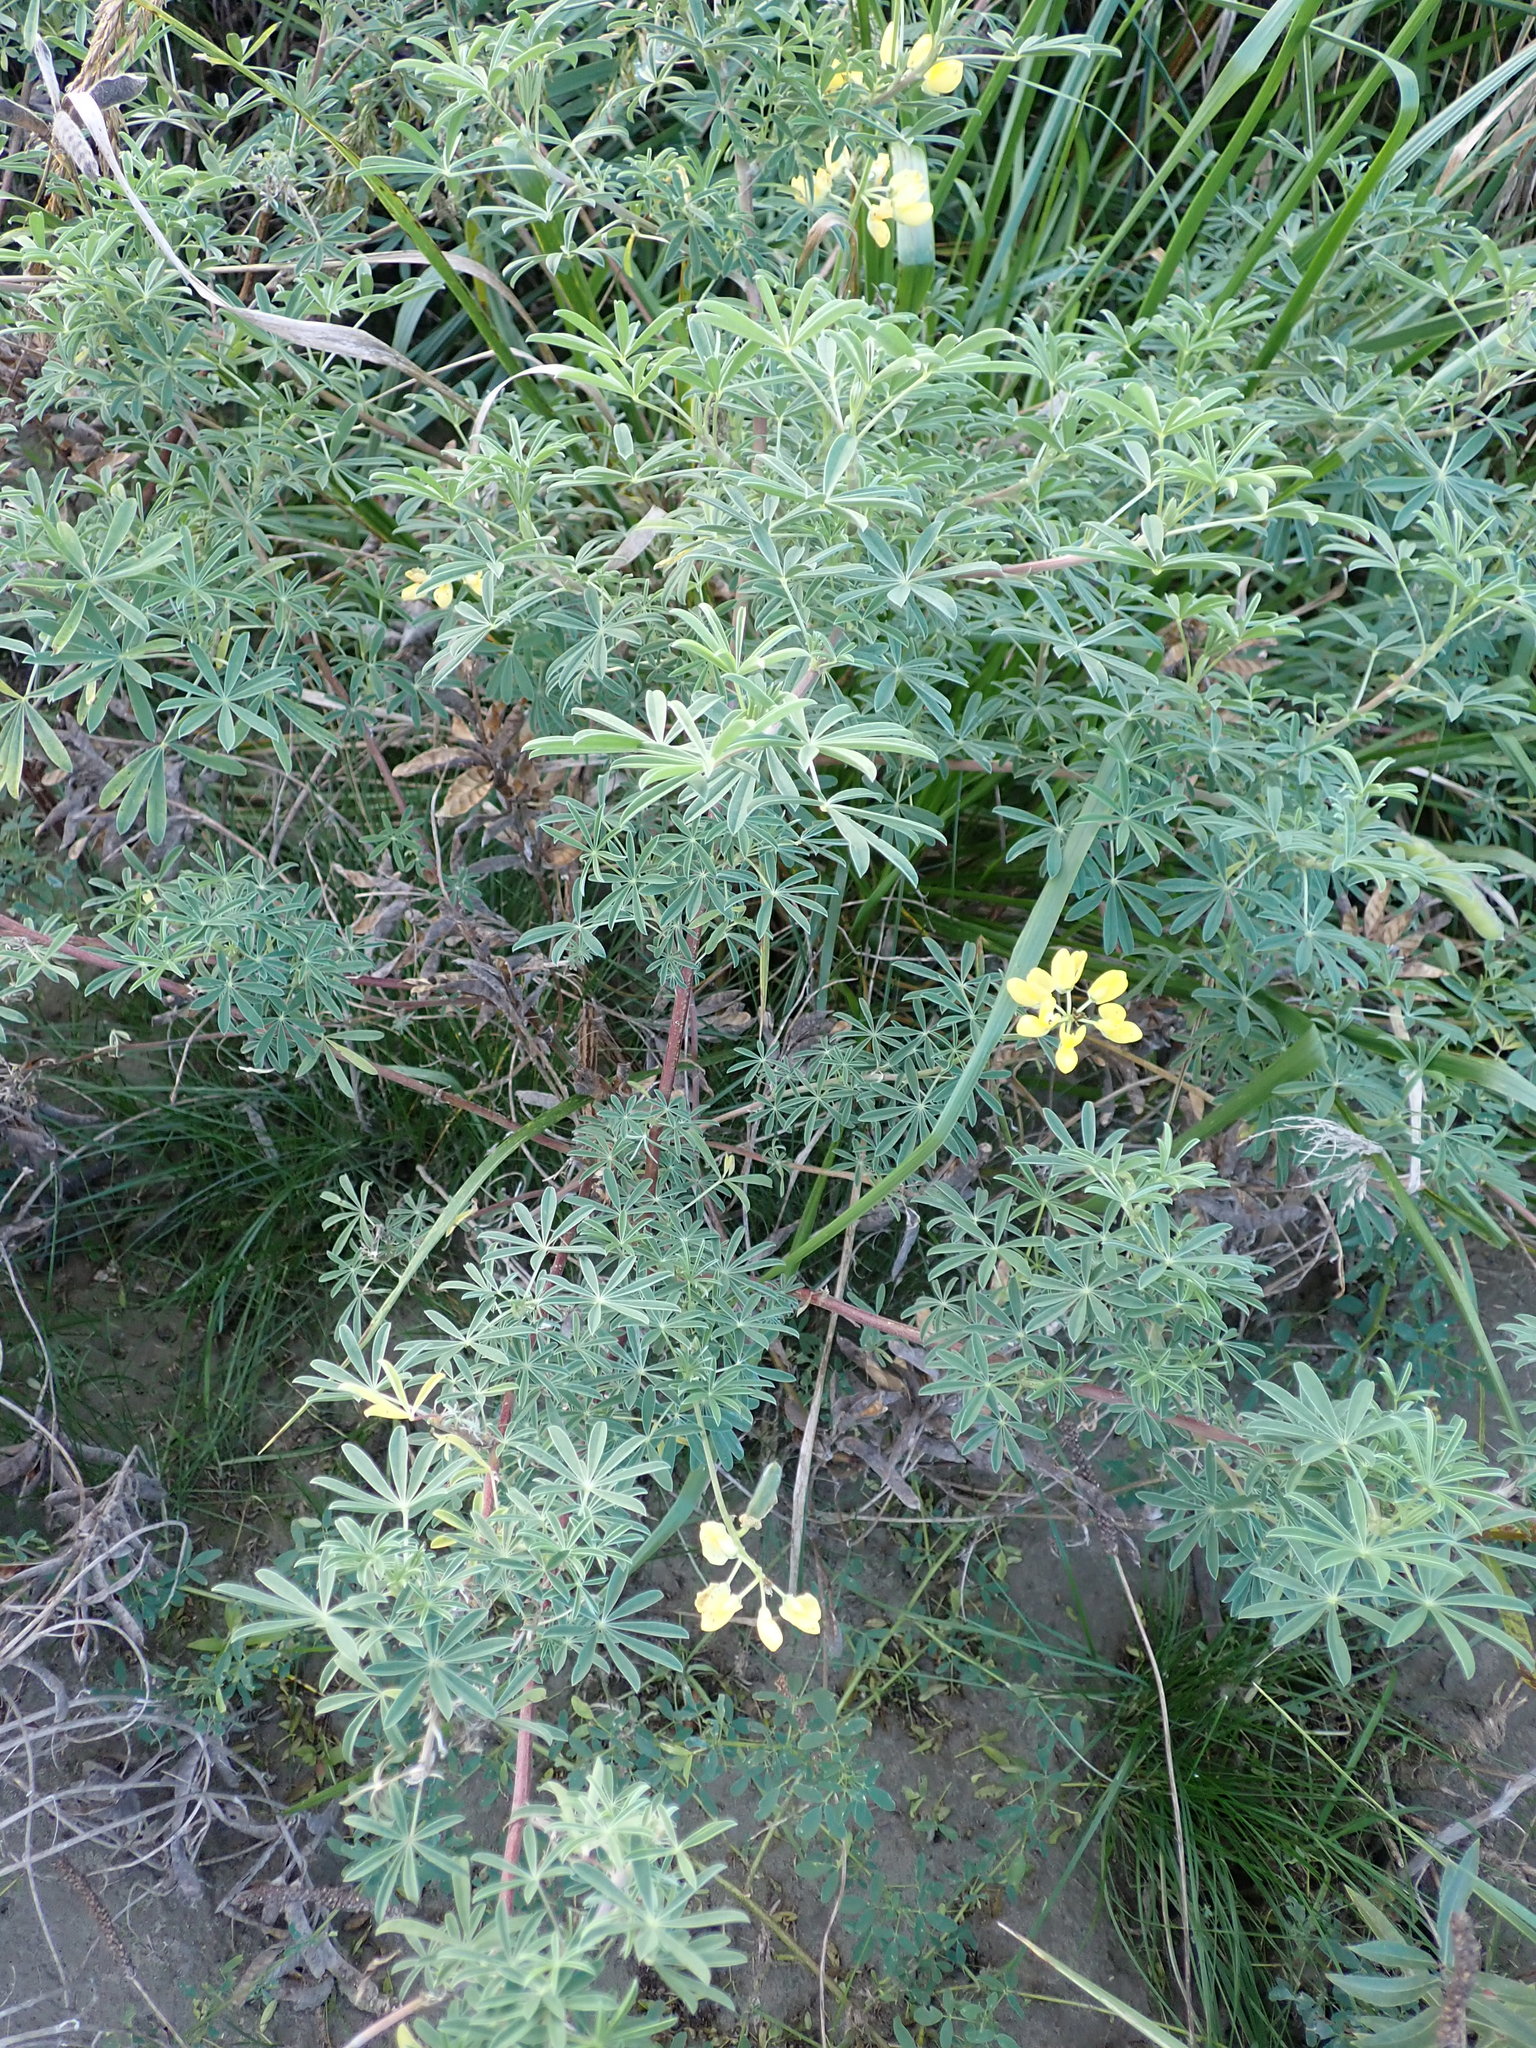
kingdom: Plantae
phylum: Tracheophyta
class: Magnoliopsida
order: Fabales
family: Fabaceae
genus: Lupinus
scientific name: Lupinus arboreus
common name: Yellow bush lupine
